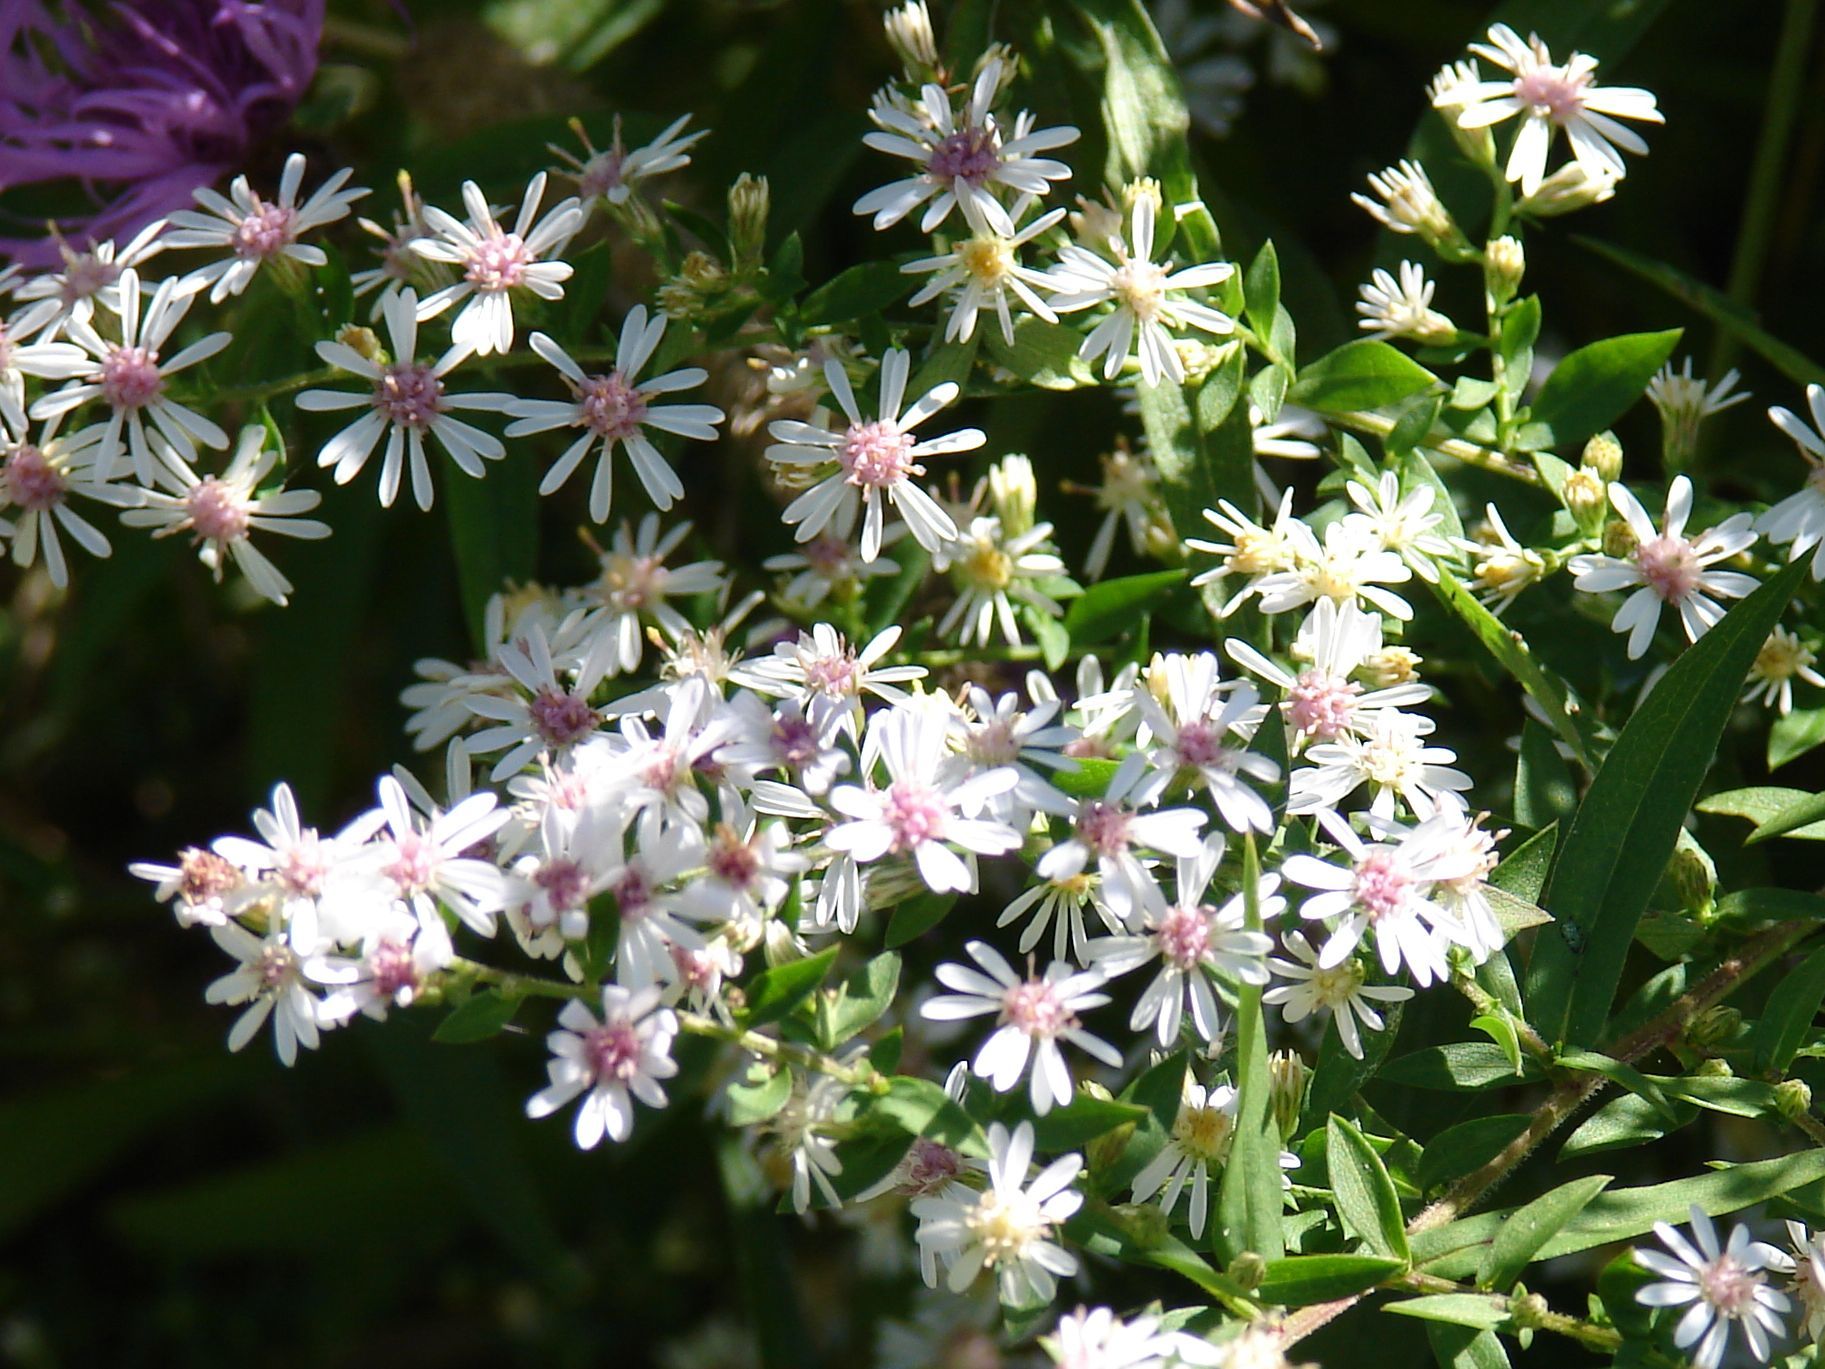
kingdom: Plantae
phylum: Tracheophyta
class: Magnoliopsida
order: Asterales
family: Asteraceae
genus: Symphyotrichum
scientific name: Symphyotrichum lateriflorum
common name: Calico aster
